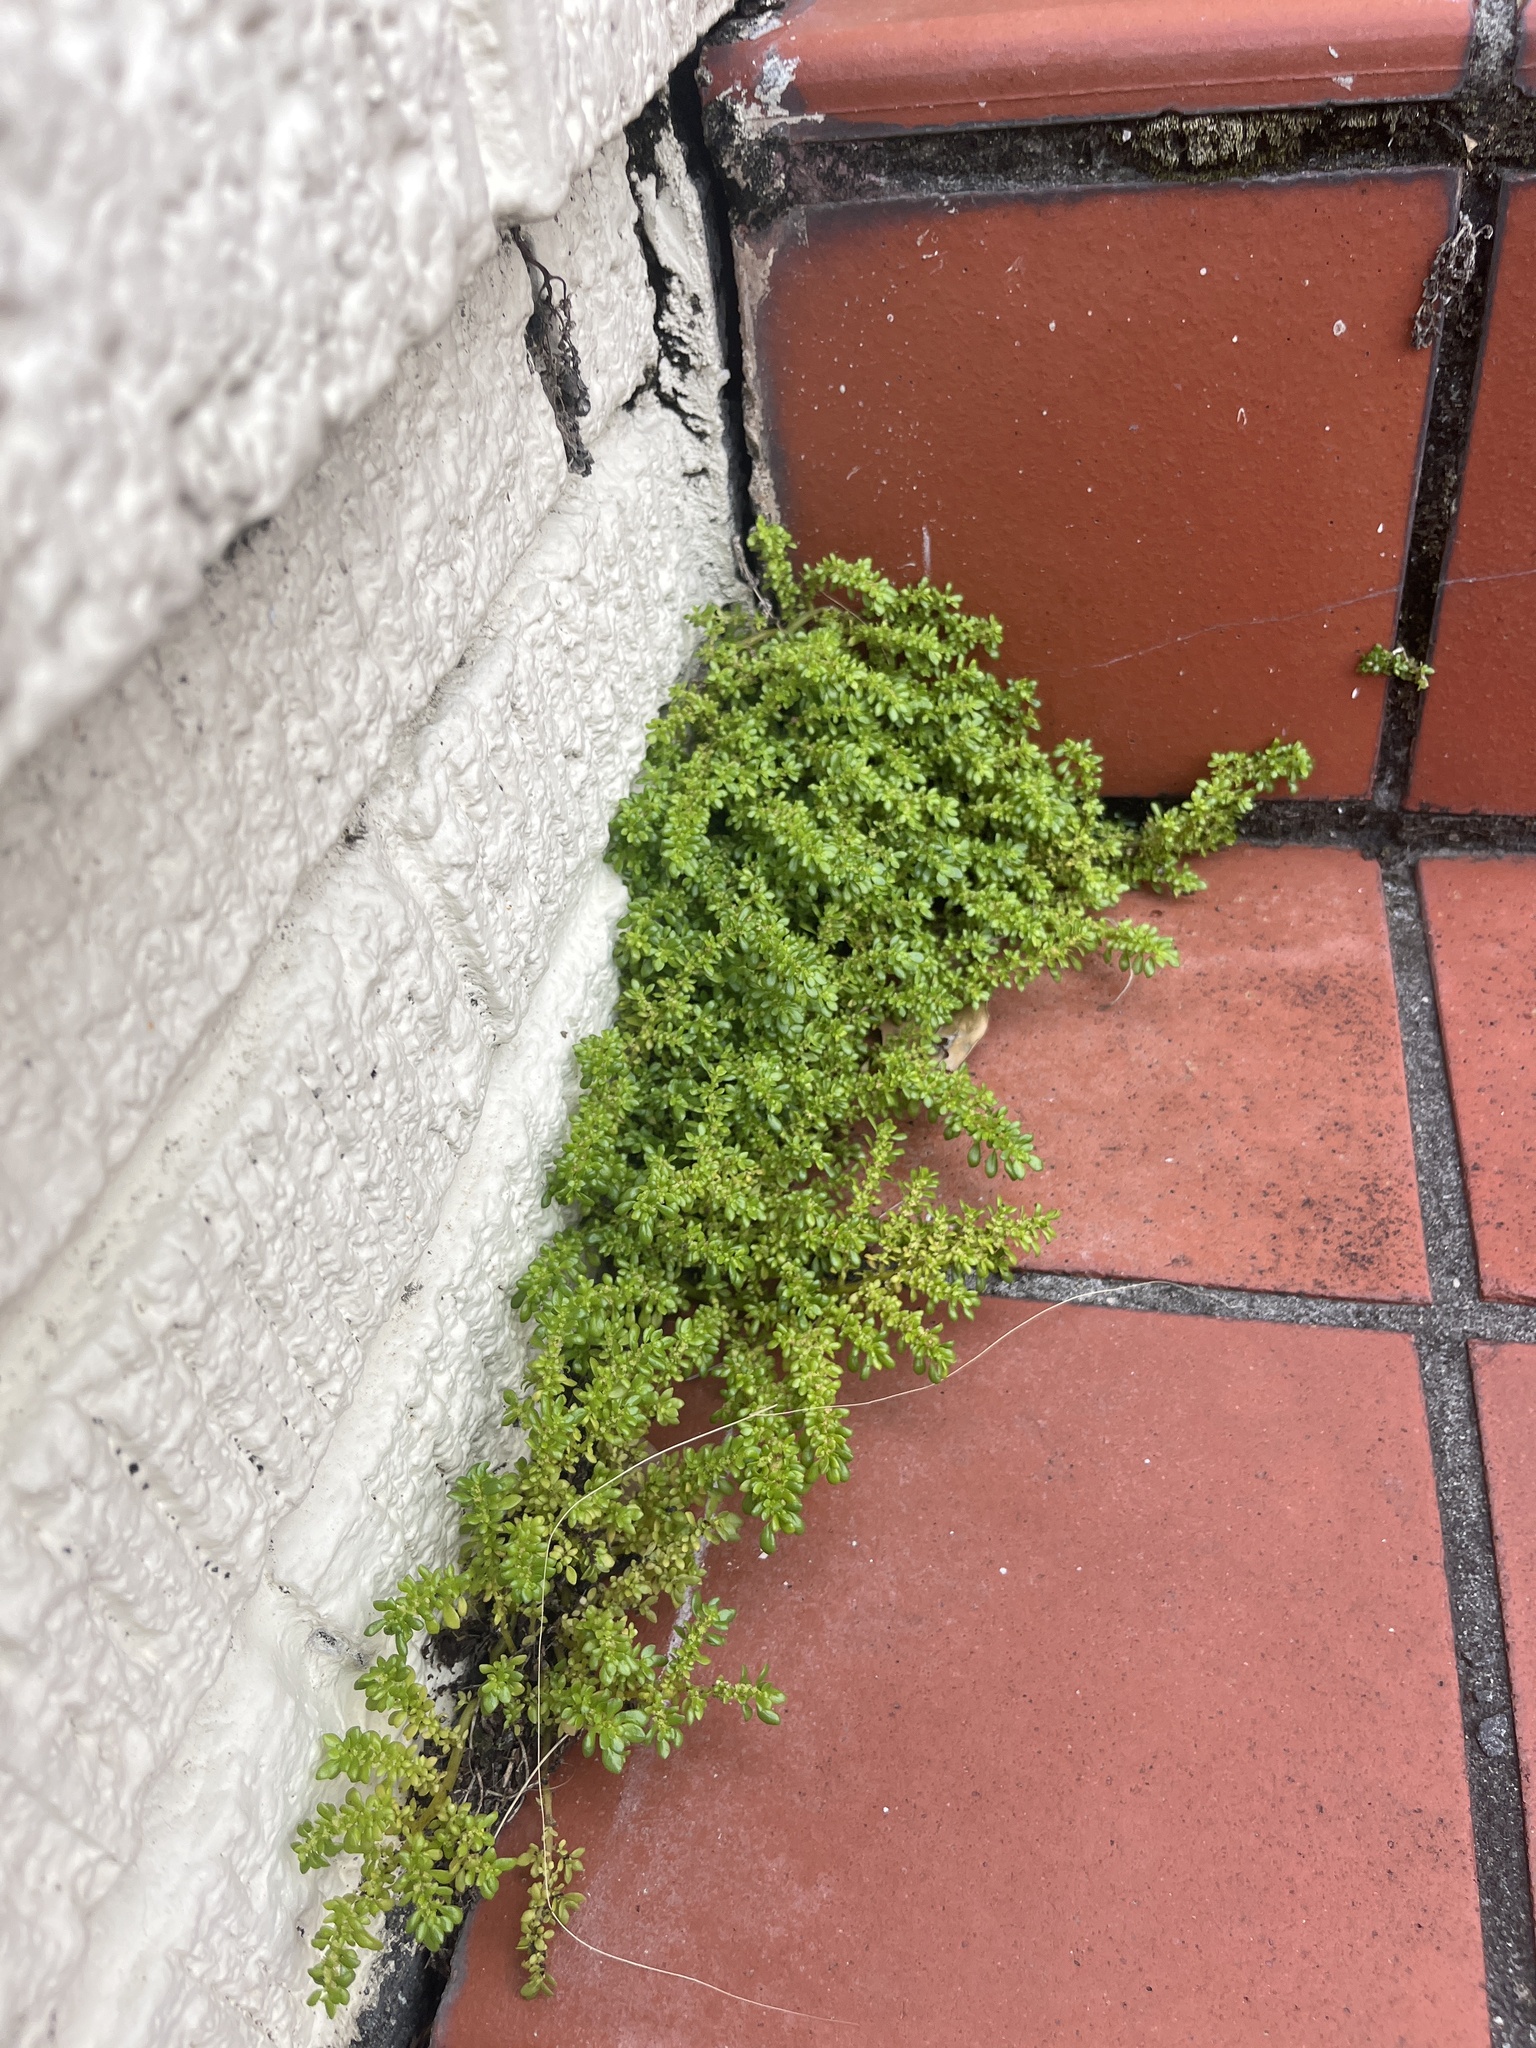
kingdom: Plantae
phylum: Tracheophyta
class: Magnoliopsida
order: Rosales
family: Urticaceae
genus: Pilea
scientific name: Pilea microphylla
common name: Artillery-plant
